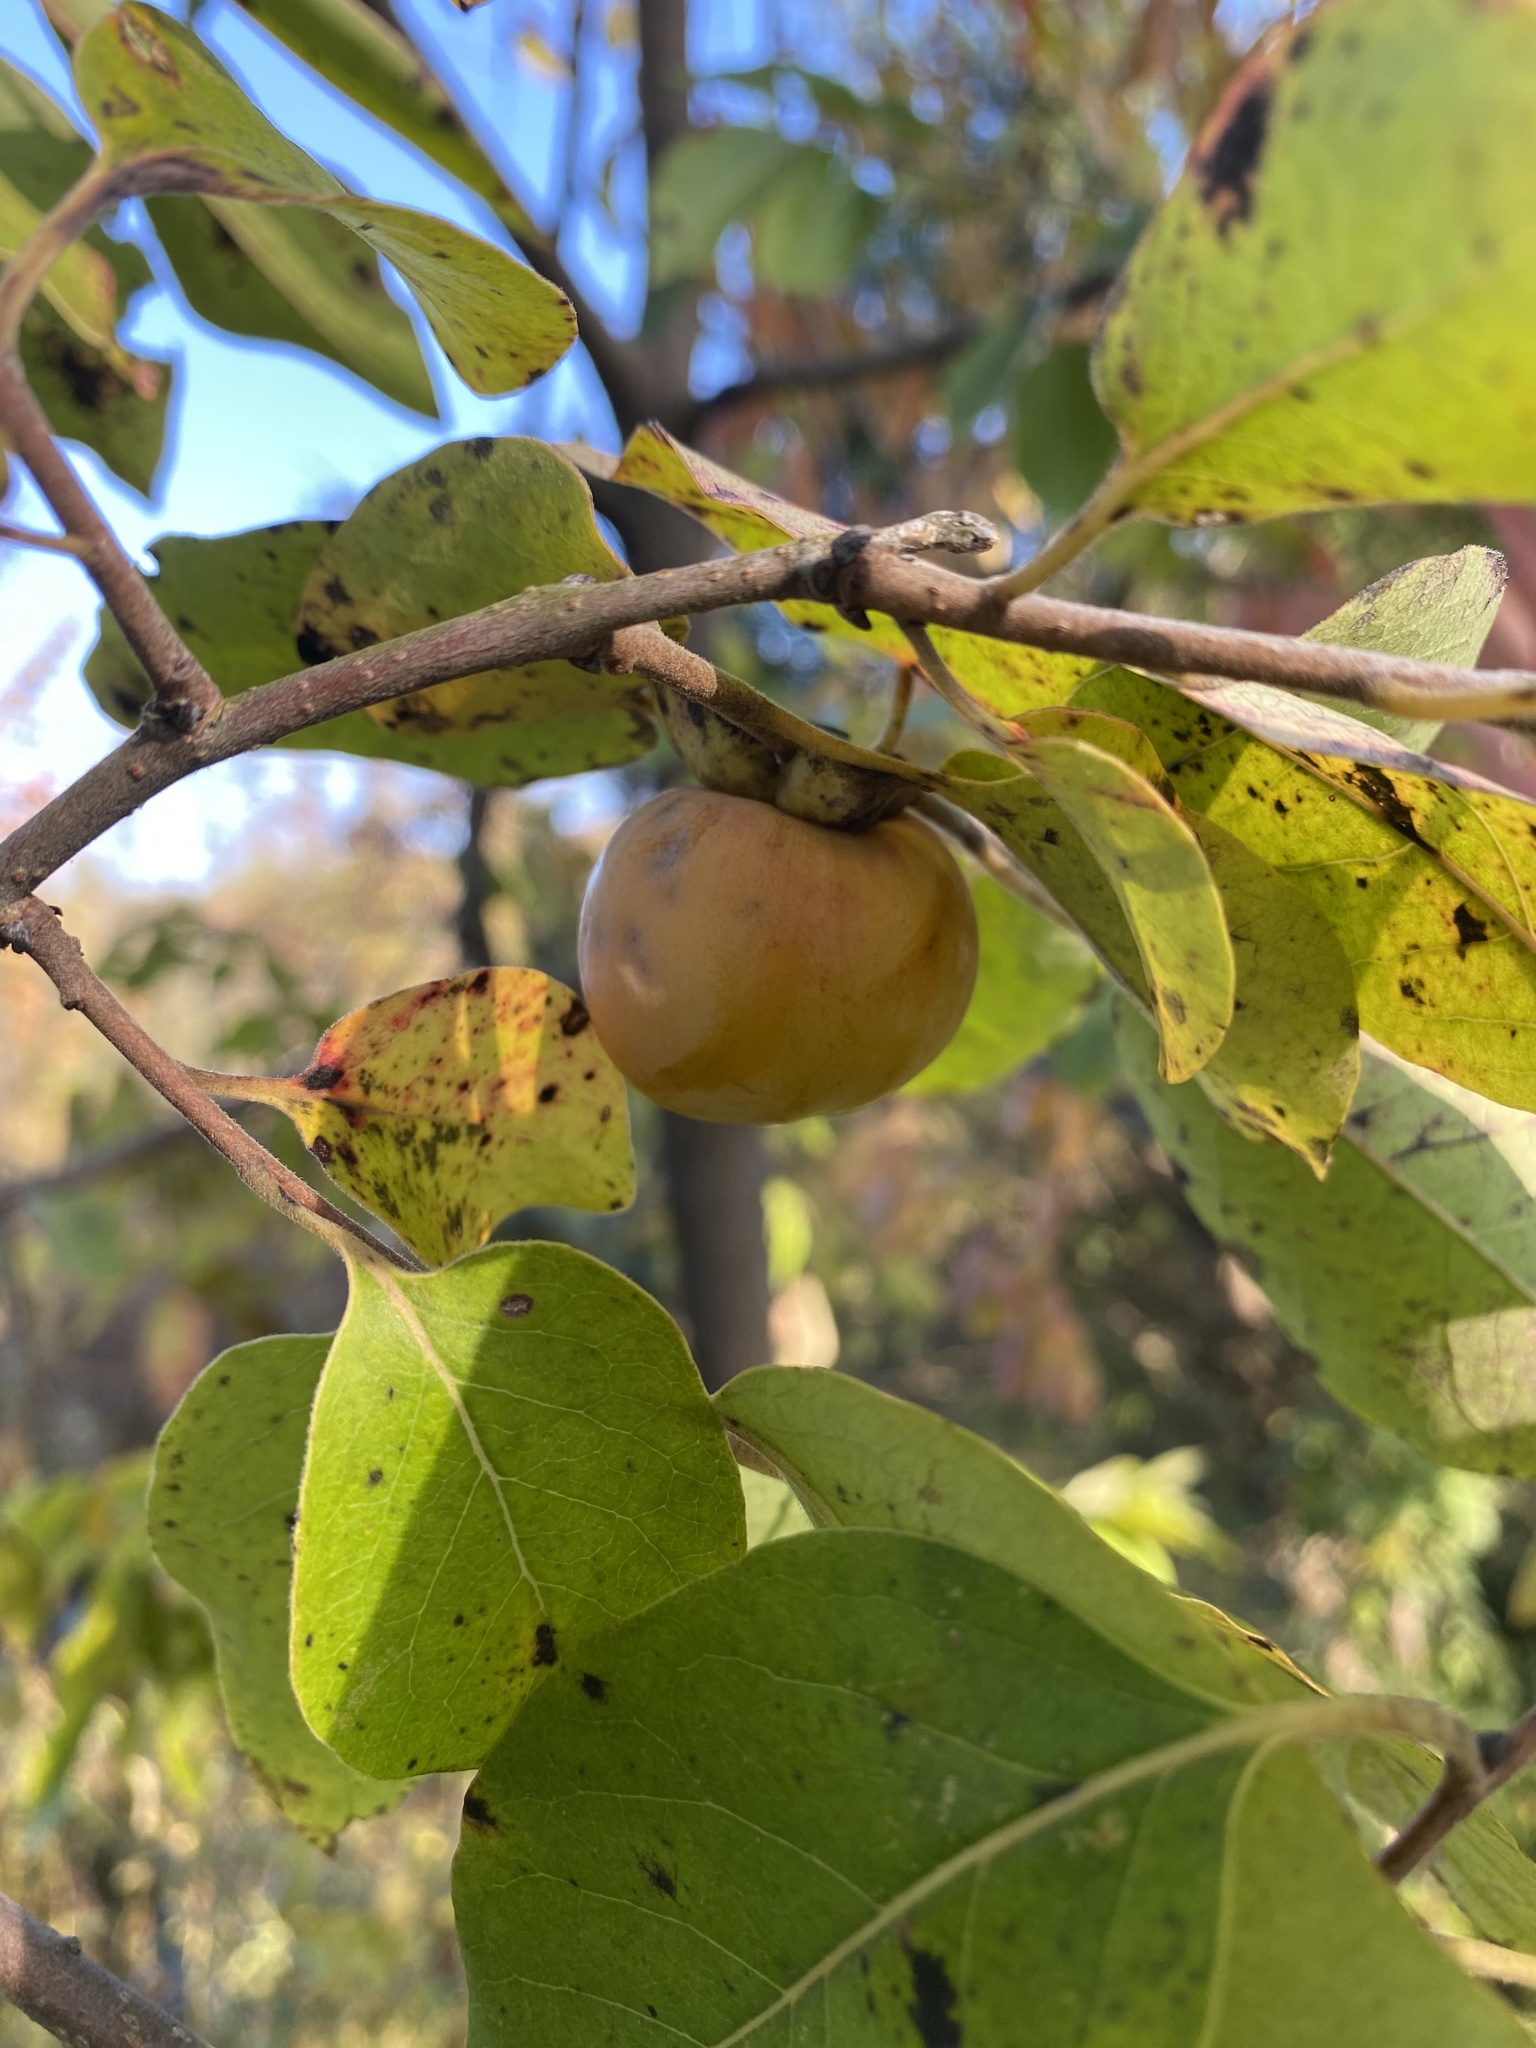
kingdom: Plantae
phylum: Tracheophyta
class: Magnoliopsida
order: Ericales
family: Ebenaceae
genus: Diospyros
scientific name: Diospyros virginiana
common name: Persimmon
